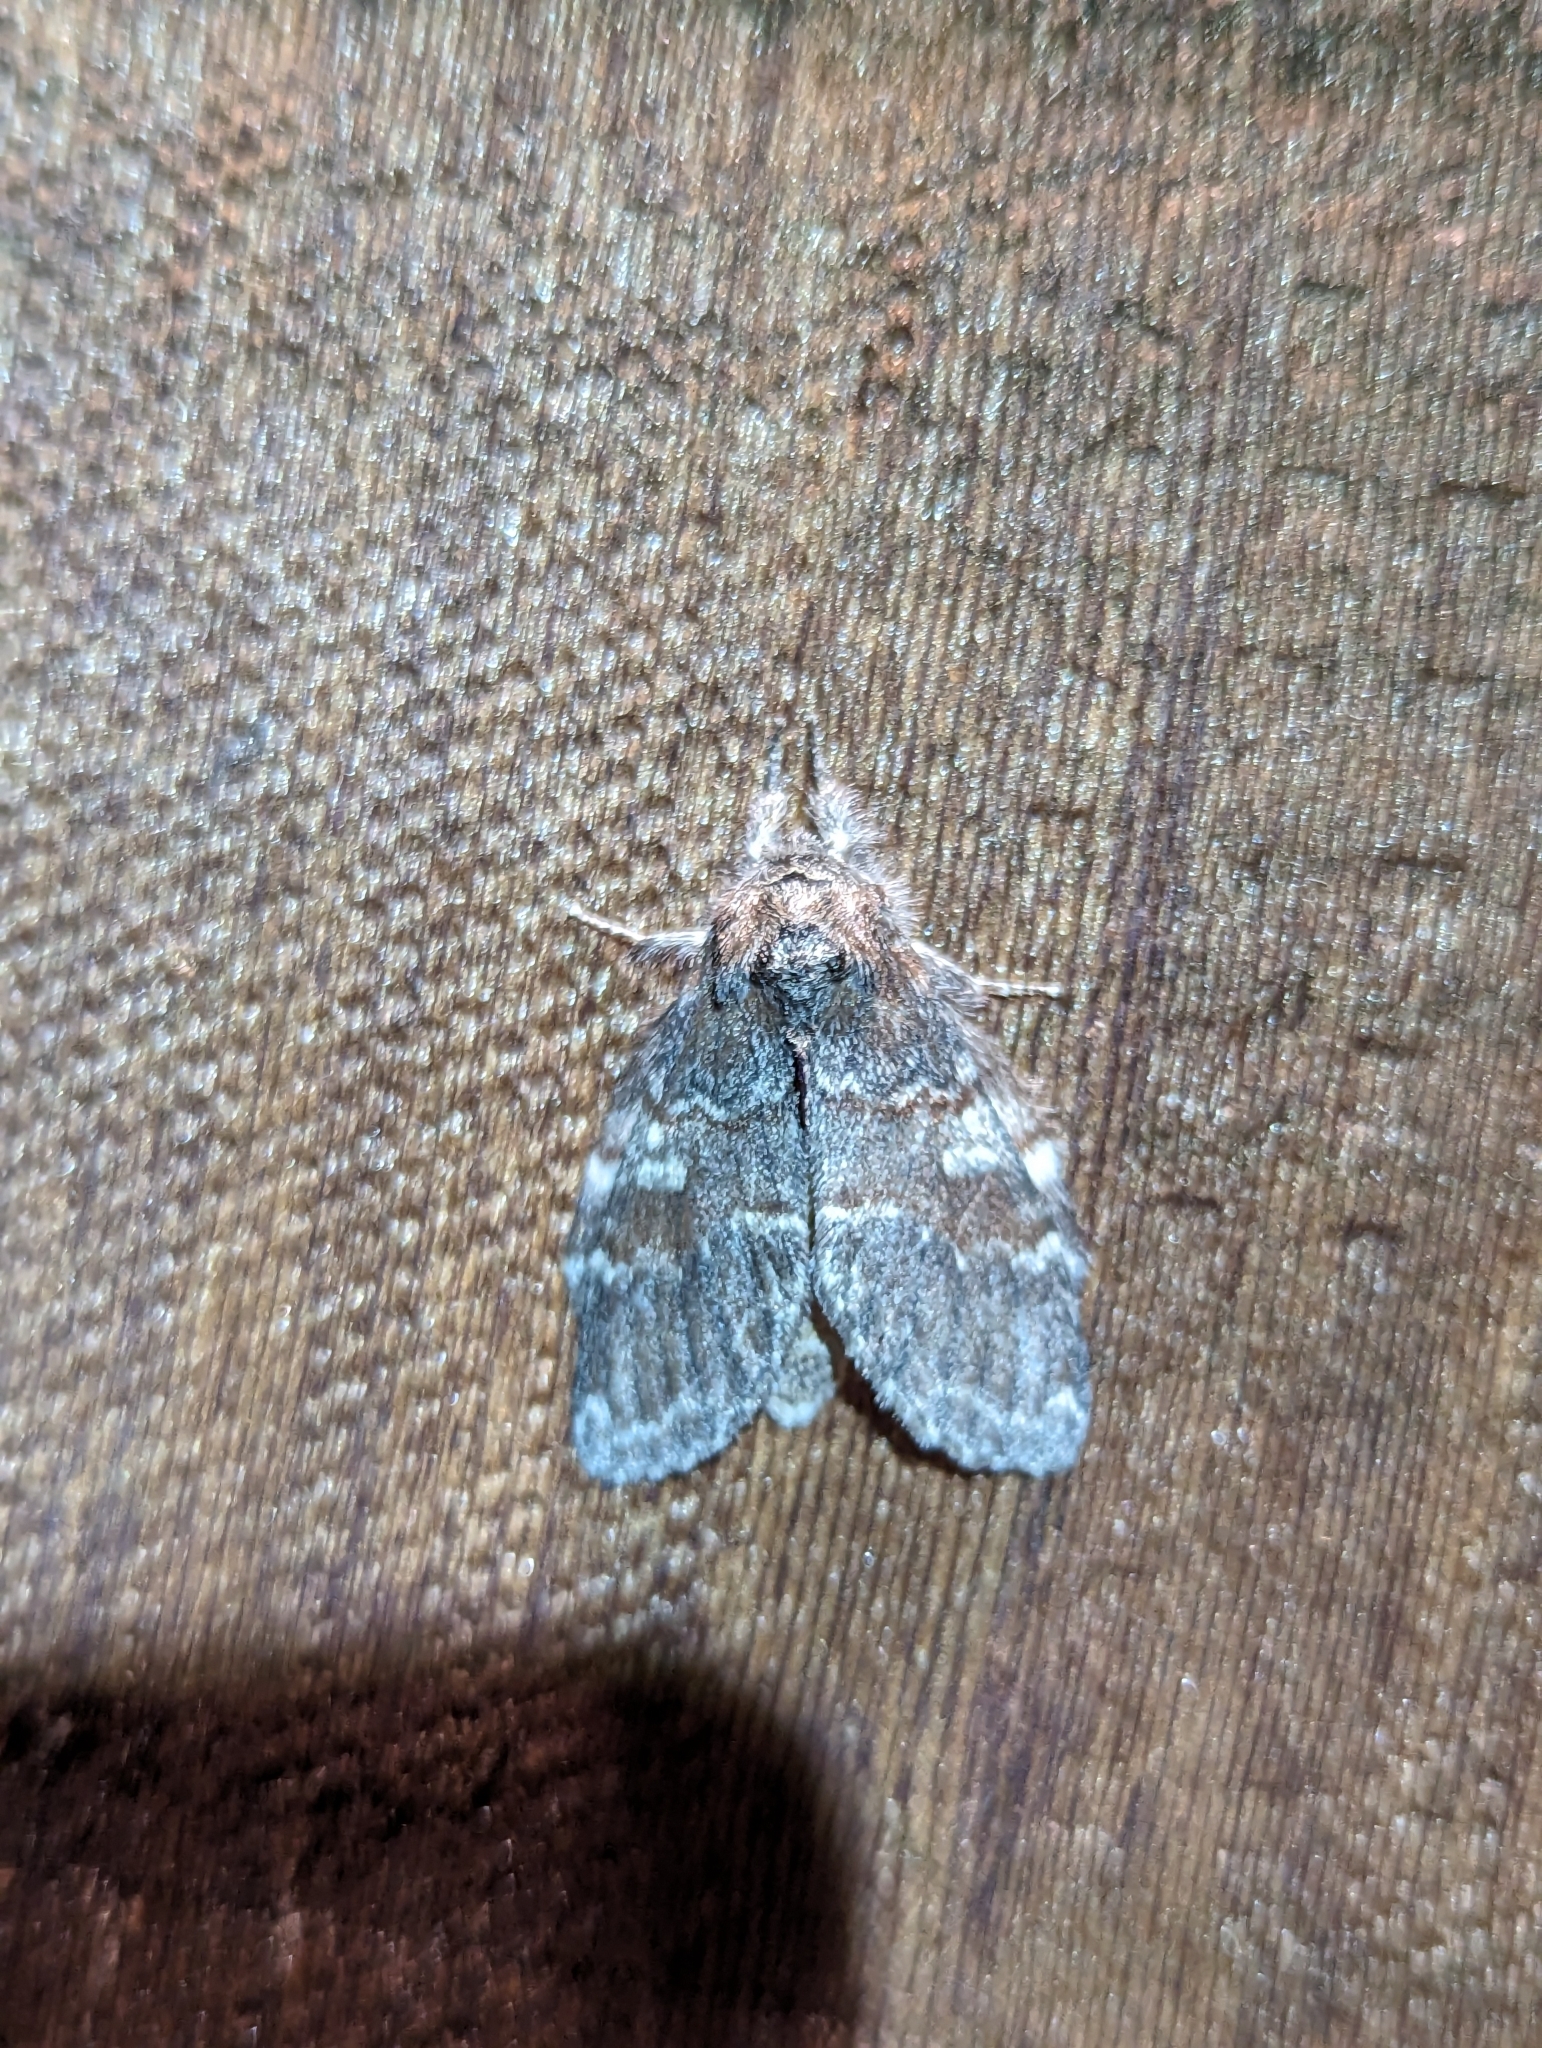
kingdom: Animalia
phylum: Arthropoda
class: Insecta
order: Lepidoptera
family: Notodontidae
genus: Peridea
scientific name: Peridea ferruginea
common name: Chocolate prominent
